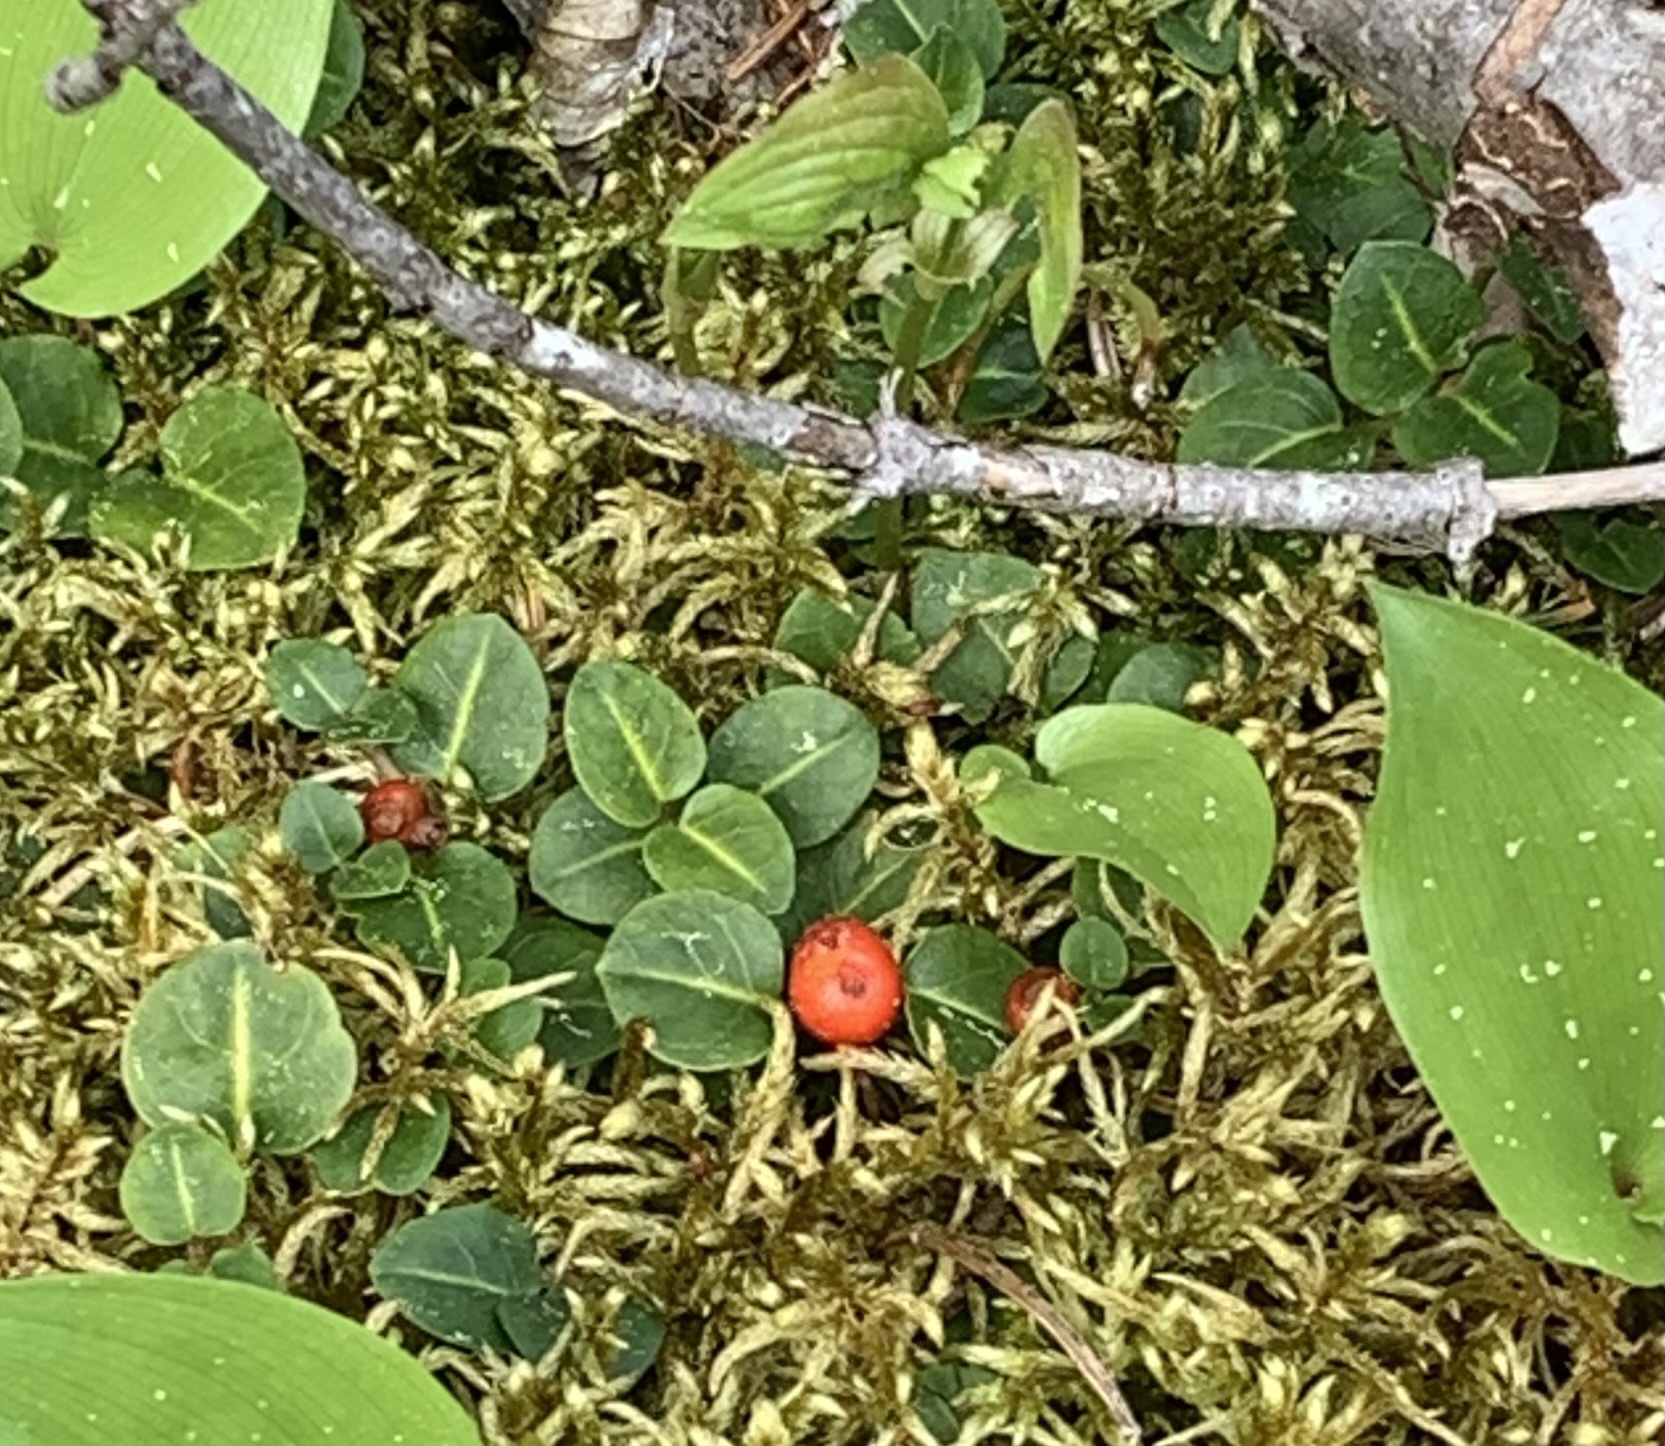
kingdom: Plantae
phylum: Tracheophyta
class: Magnoliopsida
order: Gentianales
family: Rubiaceae
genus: Mitchella
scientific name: Mitchella repens
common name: Partridge-berry
